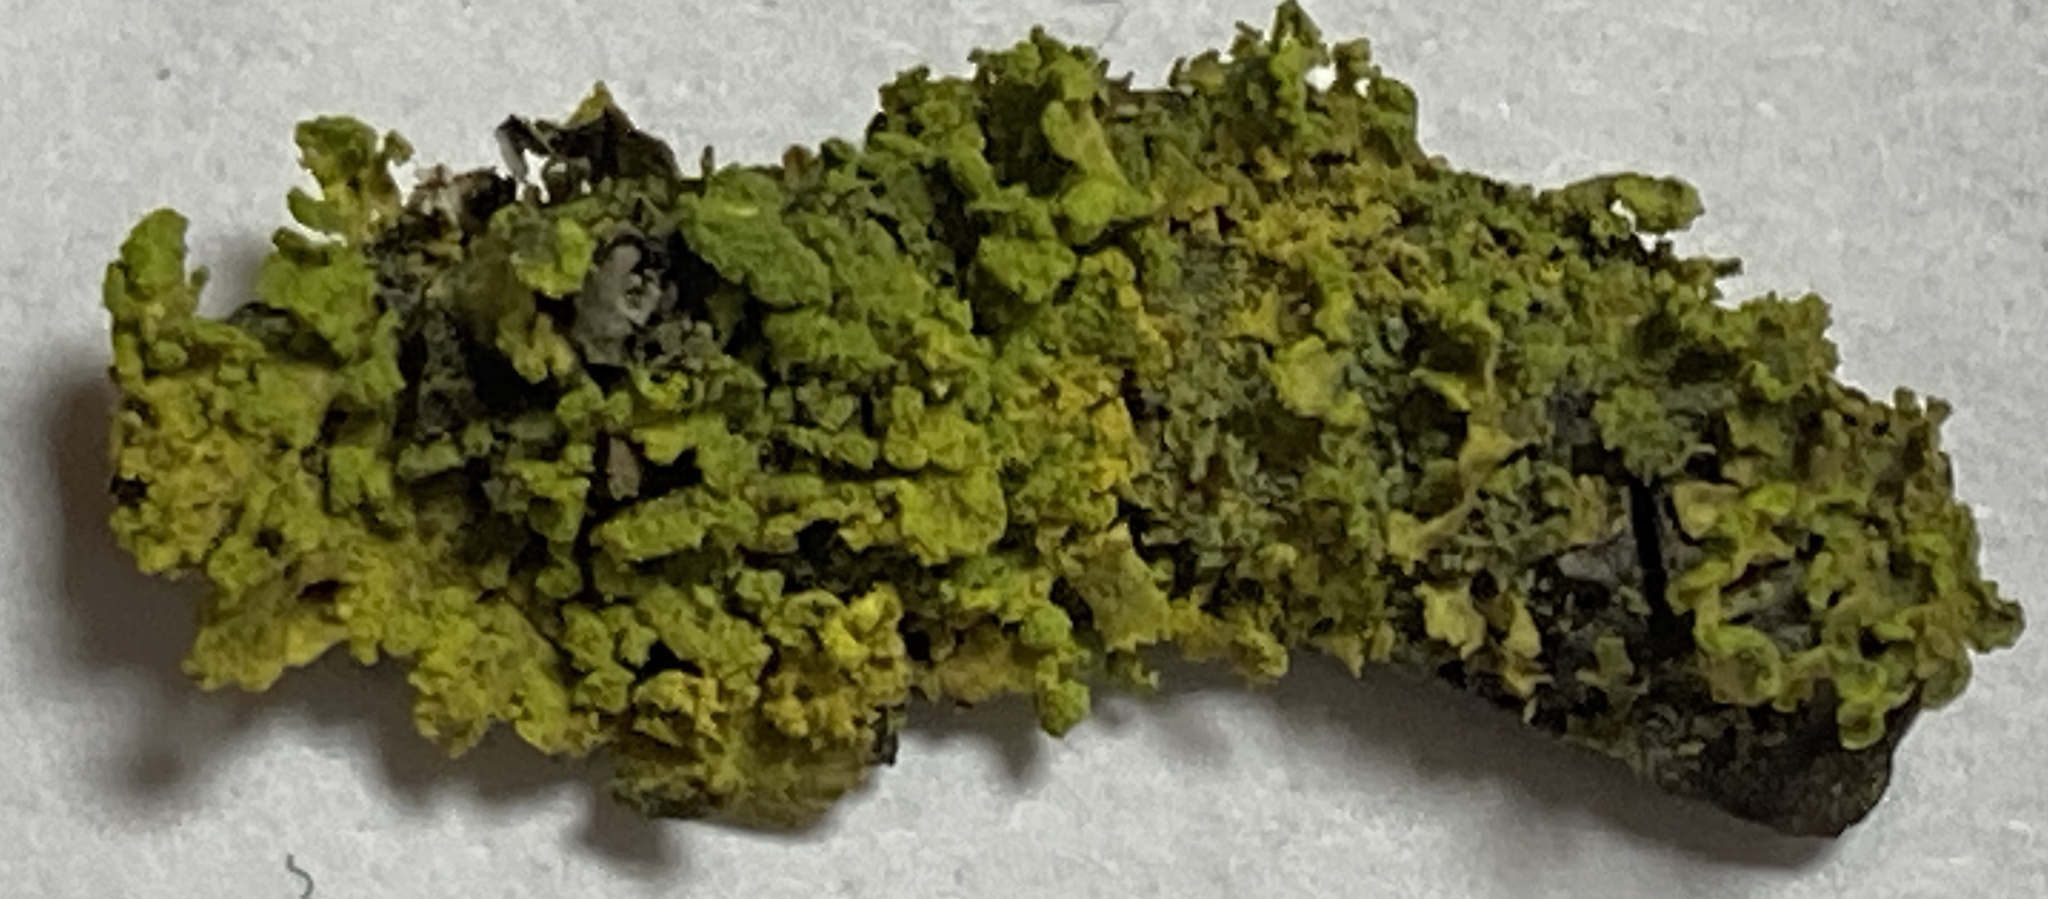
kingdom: Fungi
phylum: Ascomycota
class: Lecanoromycetes
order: Lecanorales
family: Parmeliaceae
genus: Vulpicida
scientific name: Vulpicida pinastri
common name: Powdered sunshine lichen
